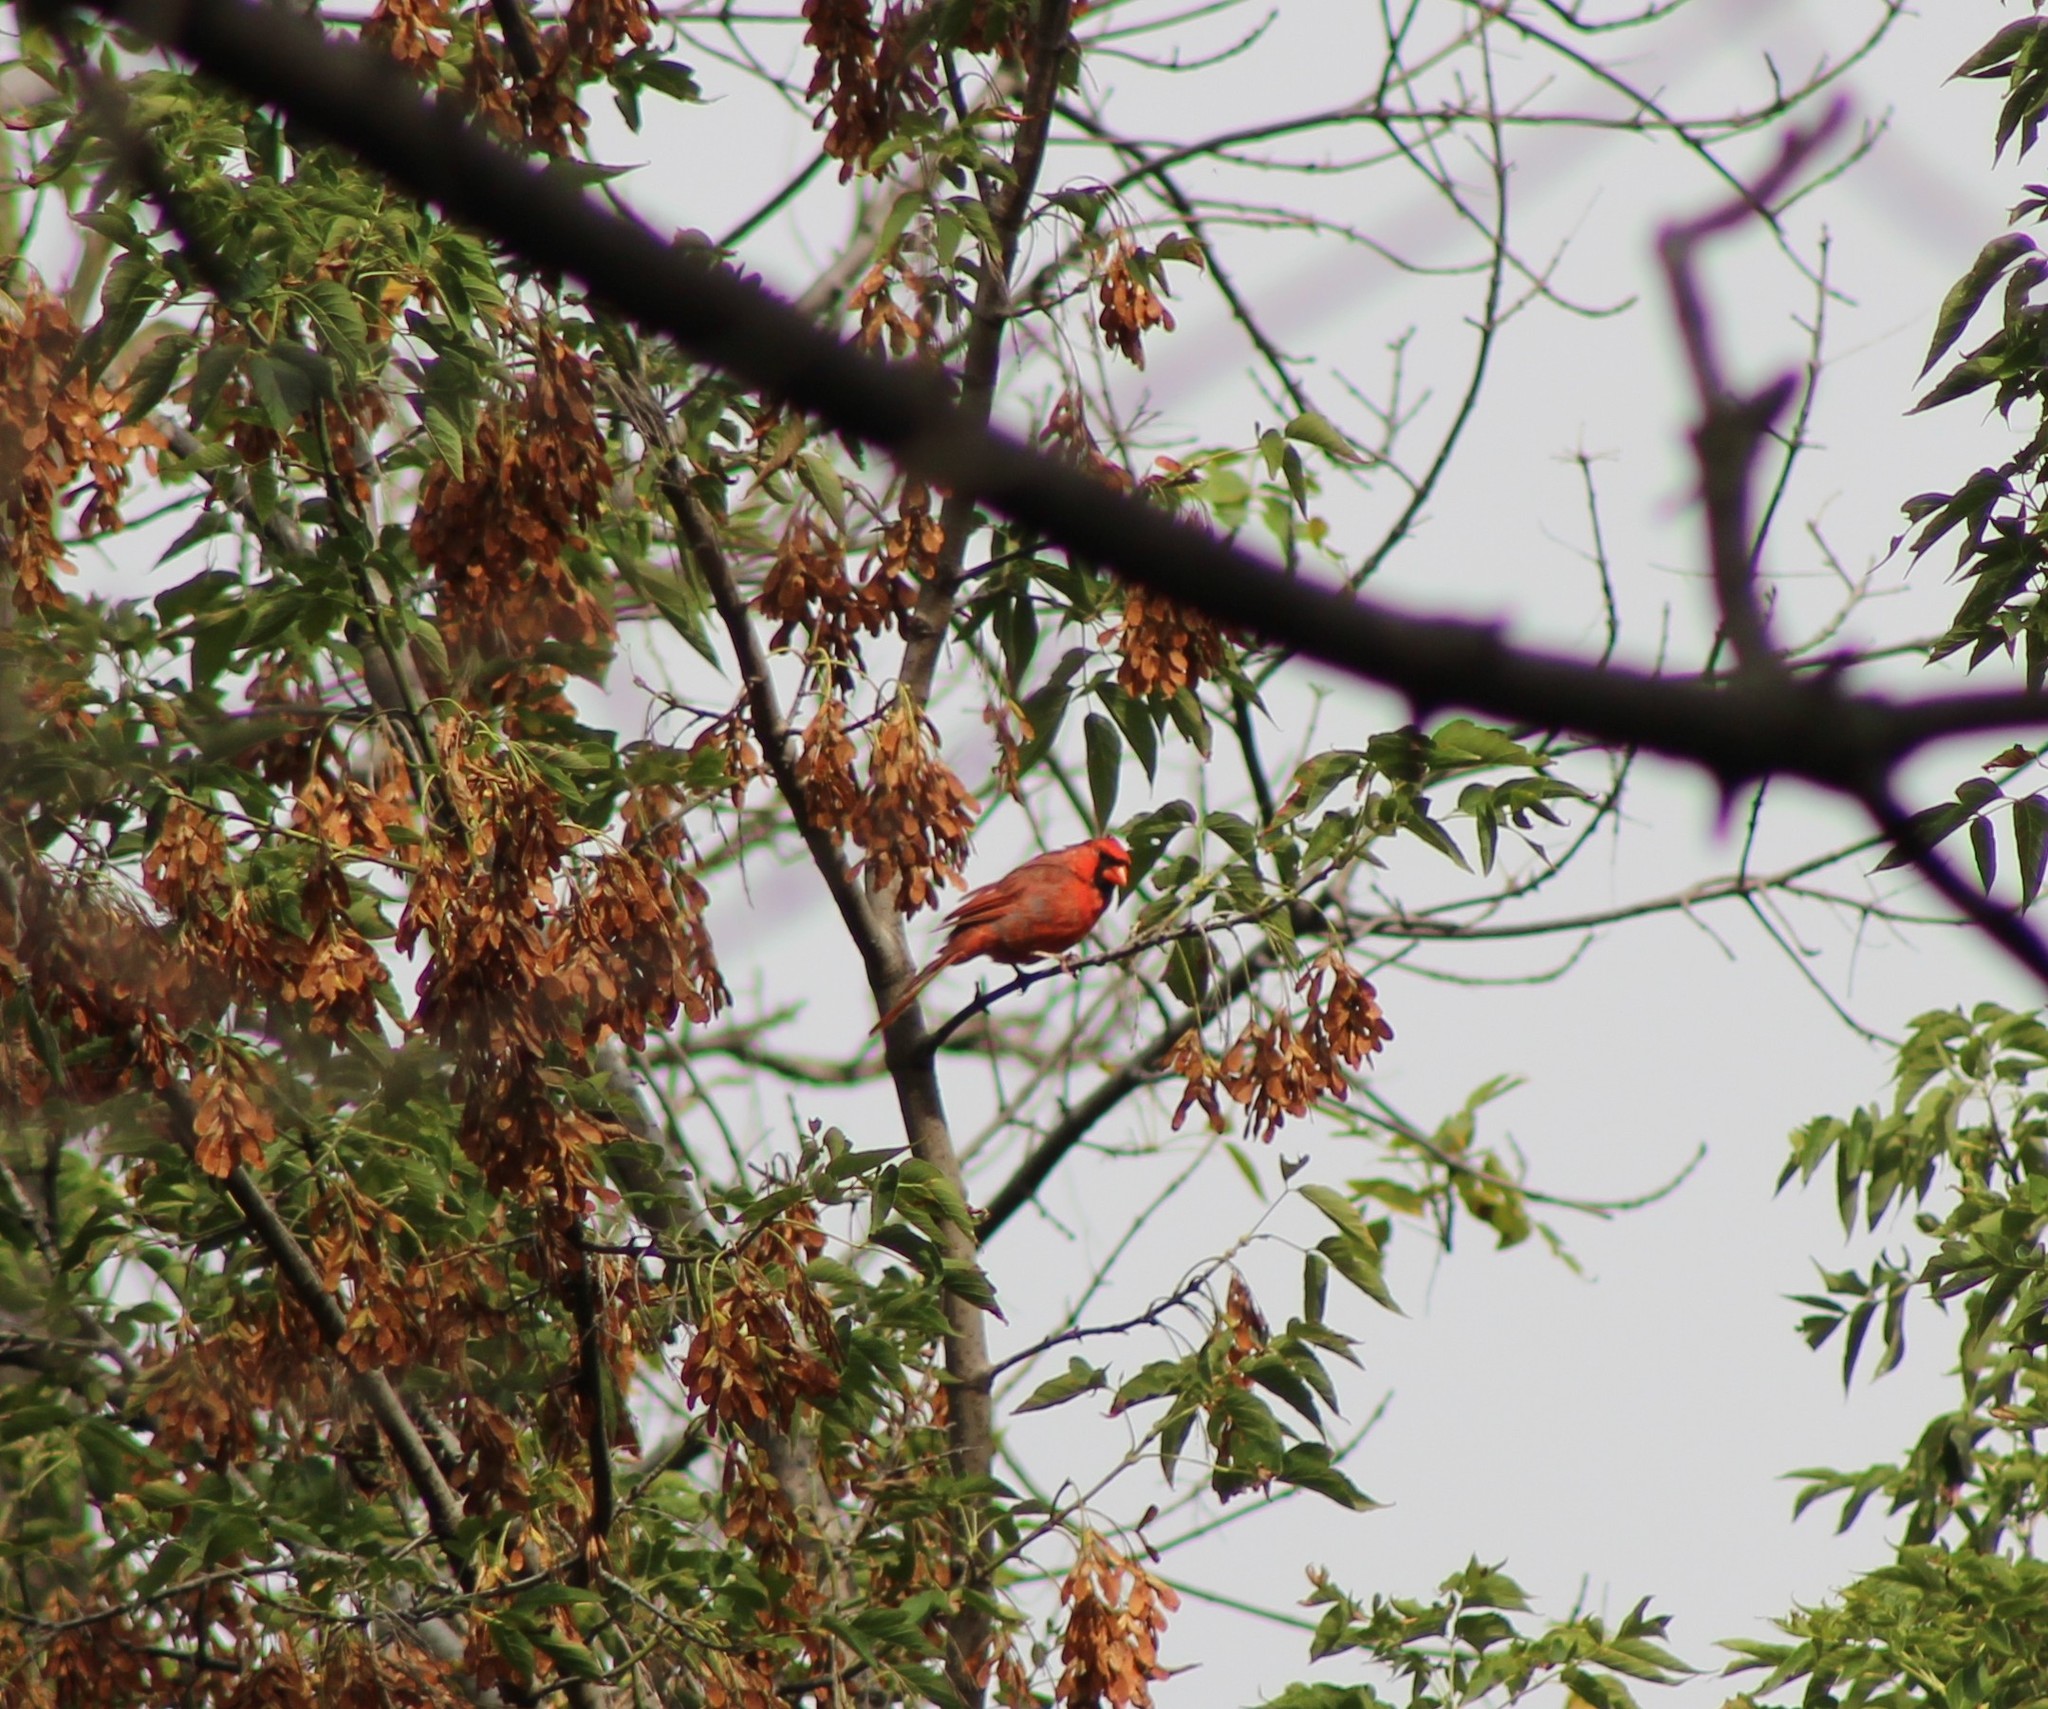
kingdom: Animalia
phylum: Chordata
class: Aves
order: Passeriformes
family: Cardinalidae
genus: Cardinalis
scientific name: Cardinalis cardinalis
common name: Northern cardinal
